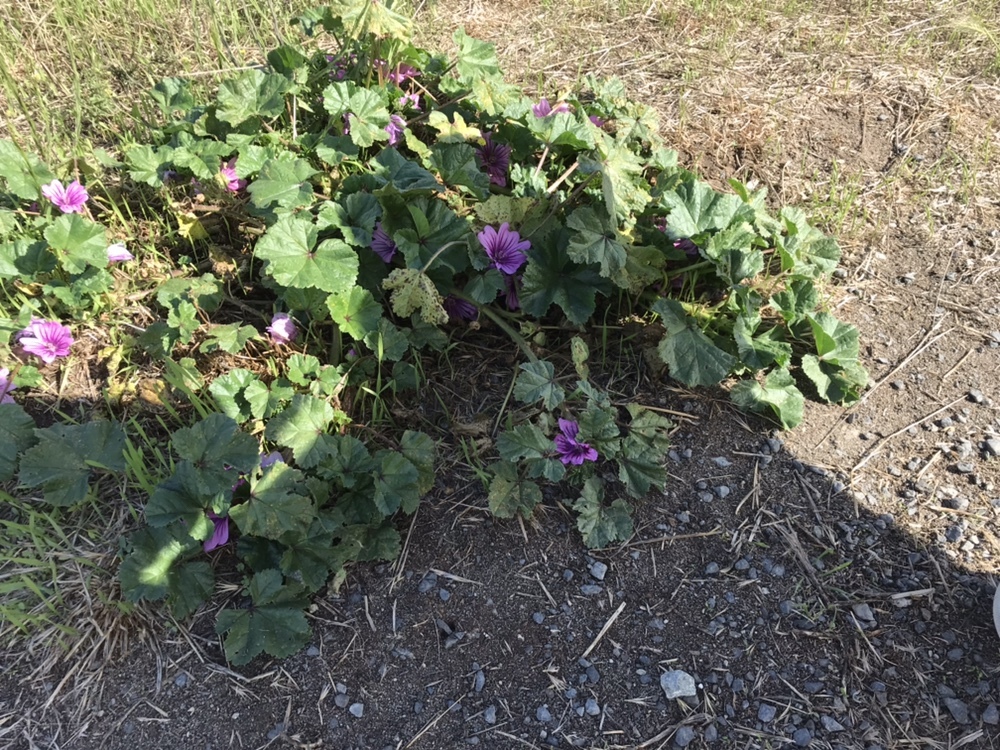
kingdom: Plantae
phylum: Tracheophyta
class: Magnoliopsida
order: Malvales
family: Malvaceae
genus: Malva
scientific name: Malva sylvestris
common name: Common mallow
